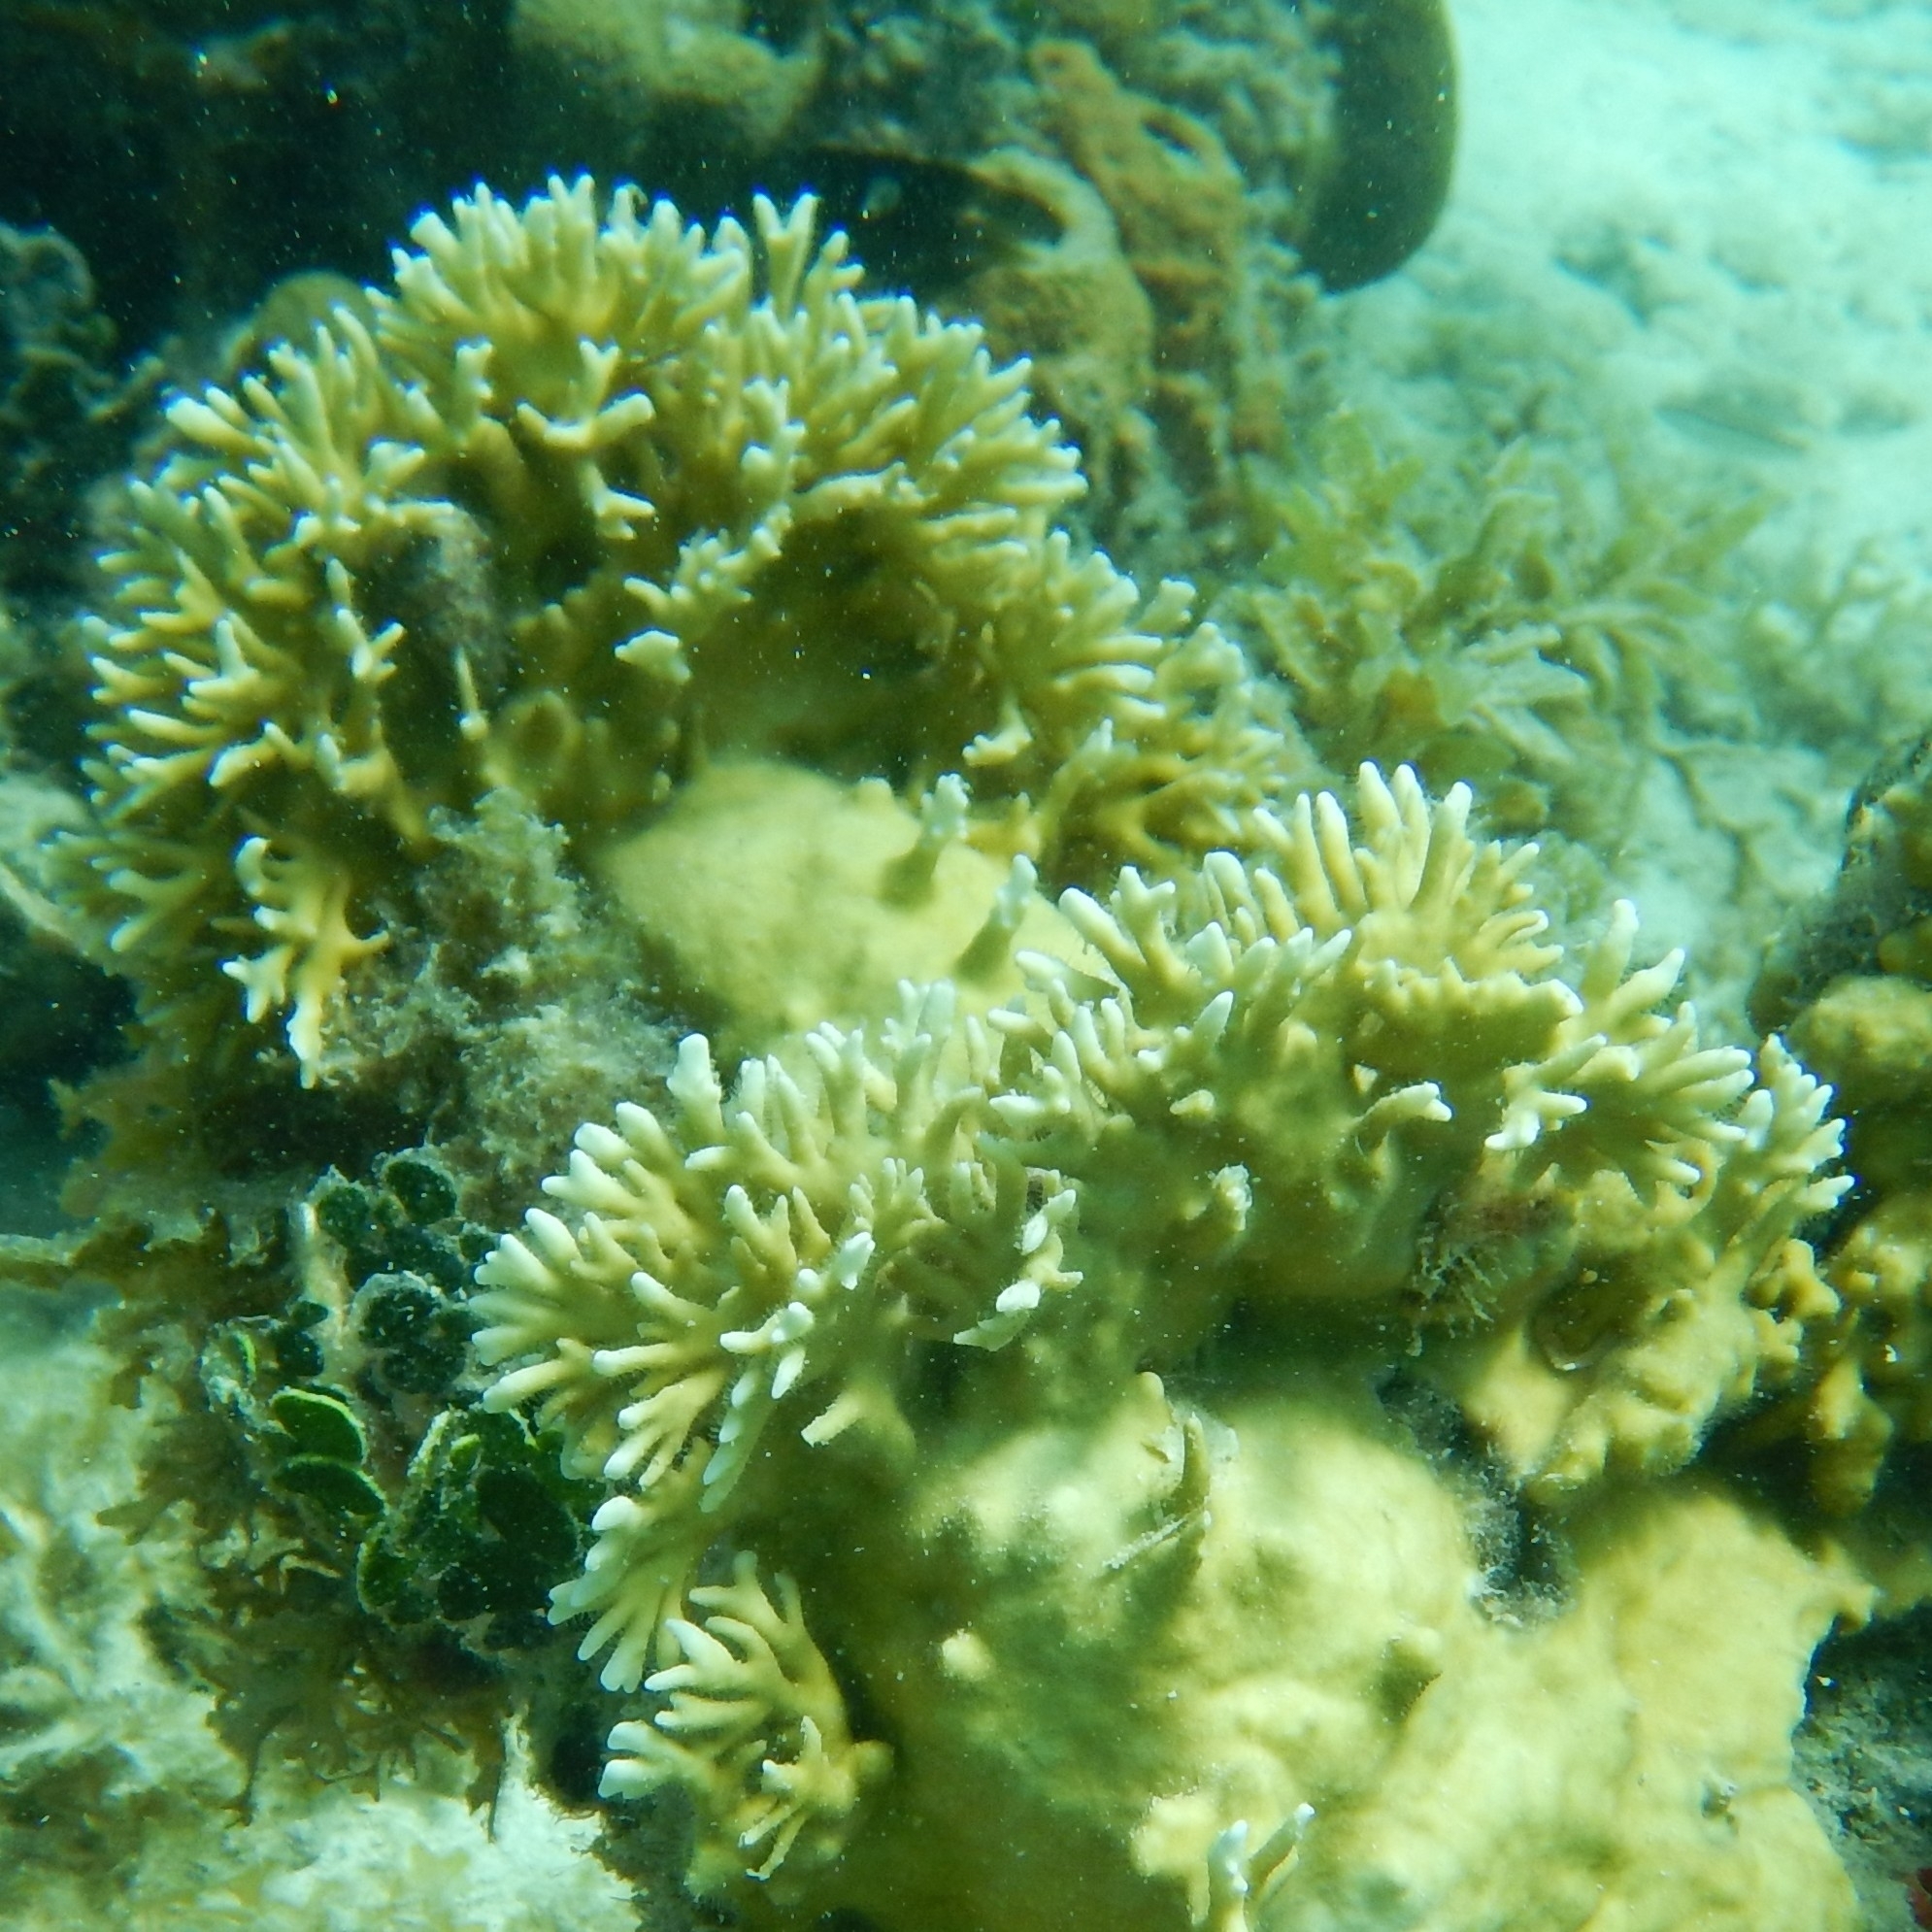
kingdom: Animalia
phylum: Cnidaria
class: Hydrozoa
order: Anthoathecata
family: Milleporidae
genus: Millepora
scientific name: Millepora alcicornis
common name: Branching fire coral
